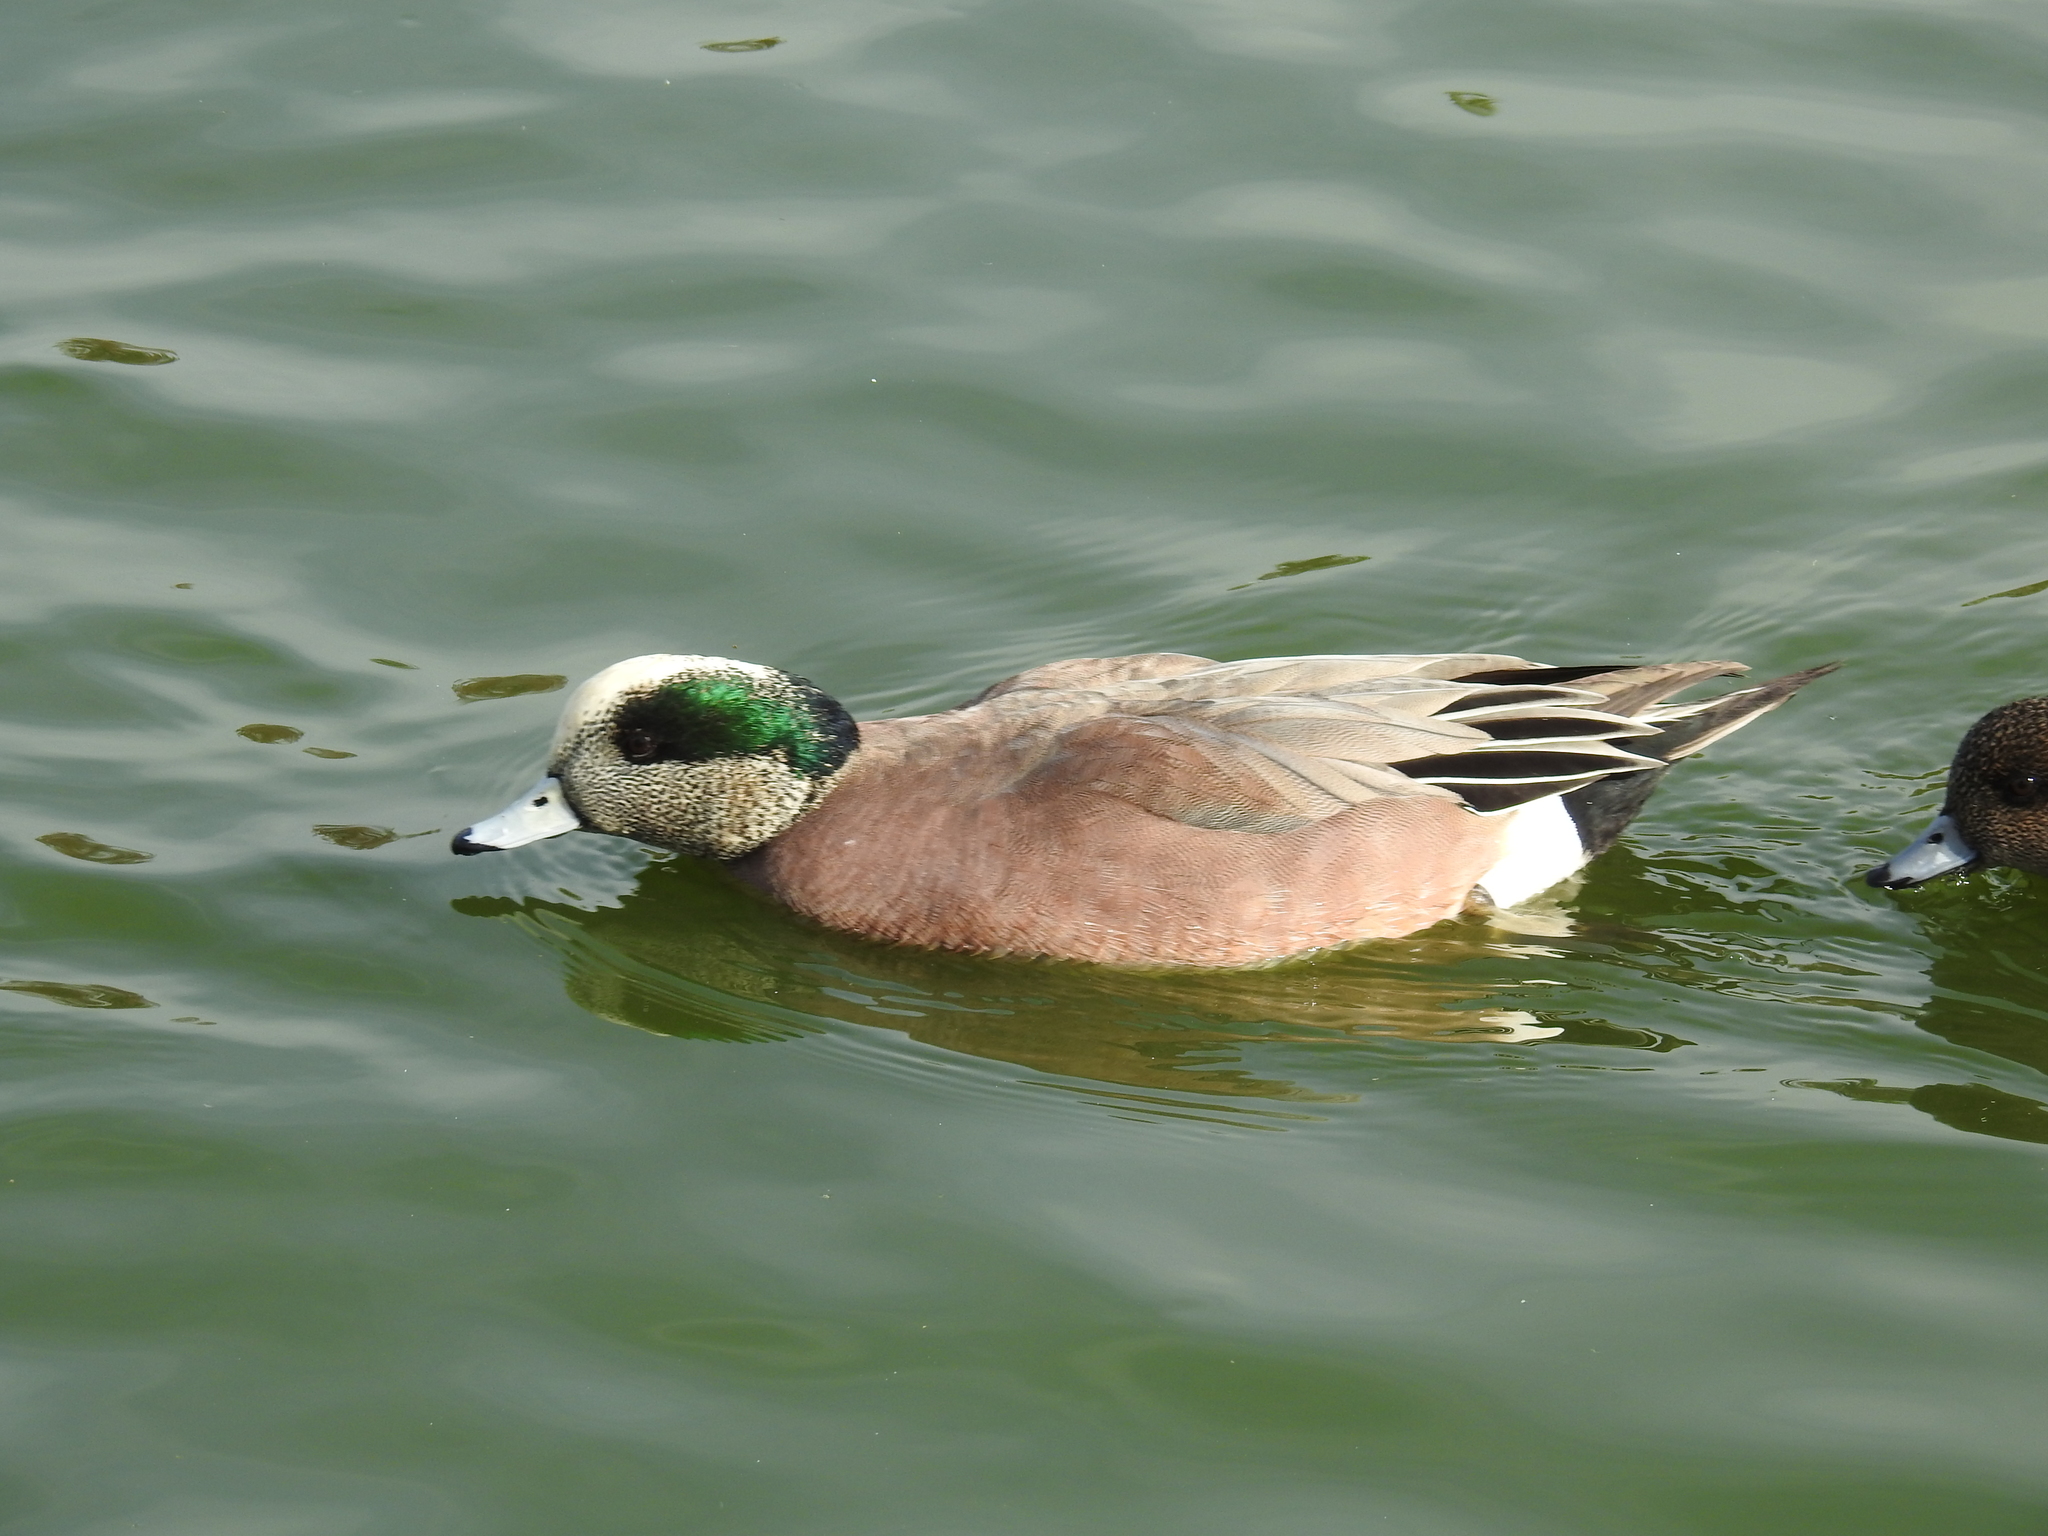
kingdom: Animalia
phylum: Chordata
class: Aves
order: Anseriformes
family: Anatidae
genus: Mareca
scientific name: Mareca americana
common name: American wigeon
